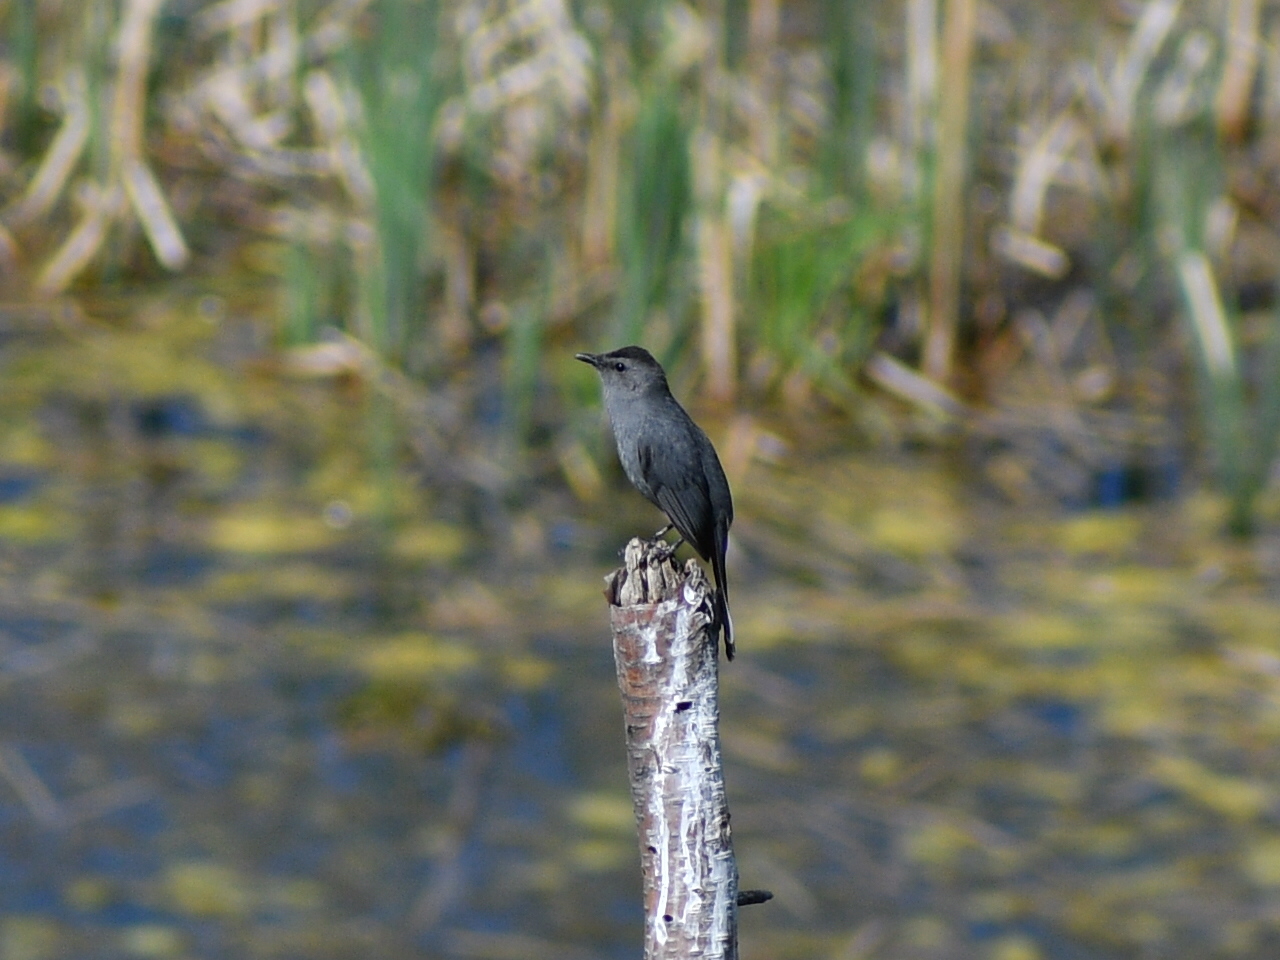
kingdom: Animalia
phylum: Chordata
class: Aves
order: Passeriformes
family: Mimidae
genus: Dumetella
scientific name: Dumetella carolinensis
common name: Gray catbird
